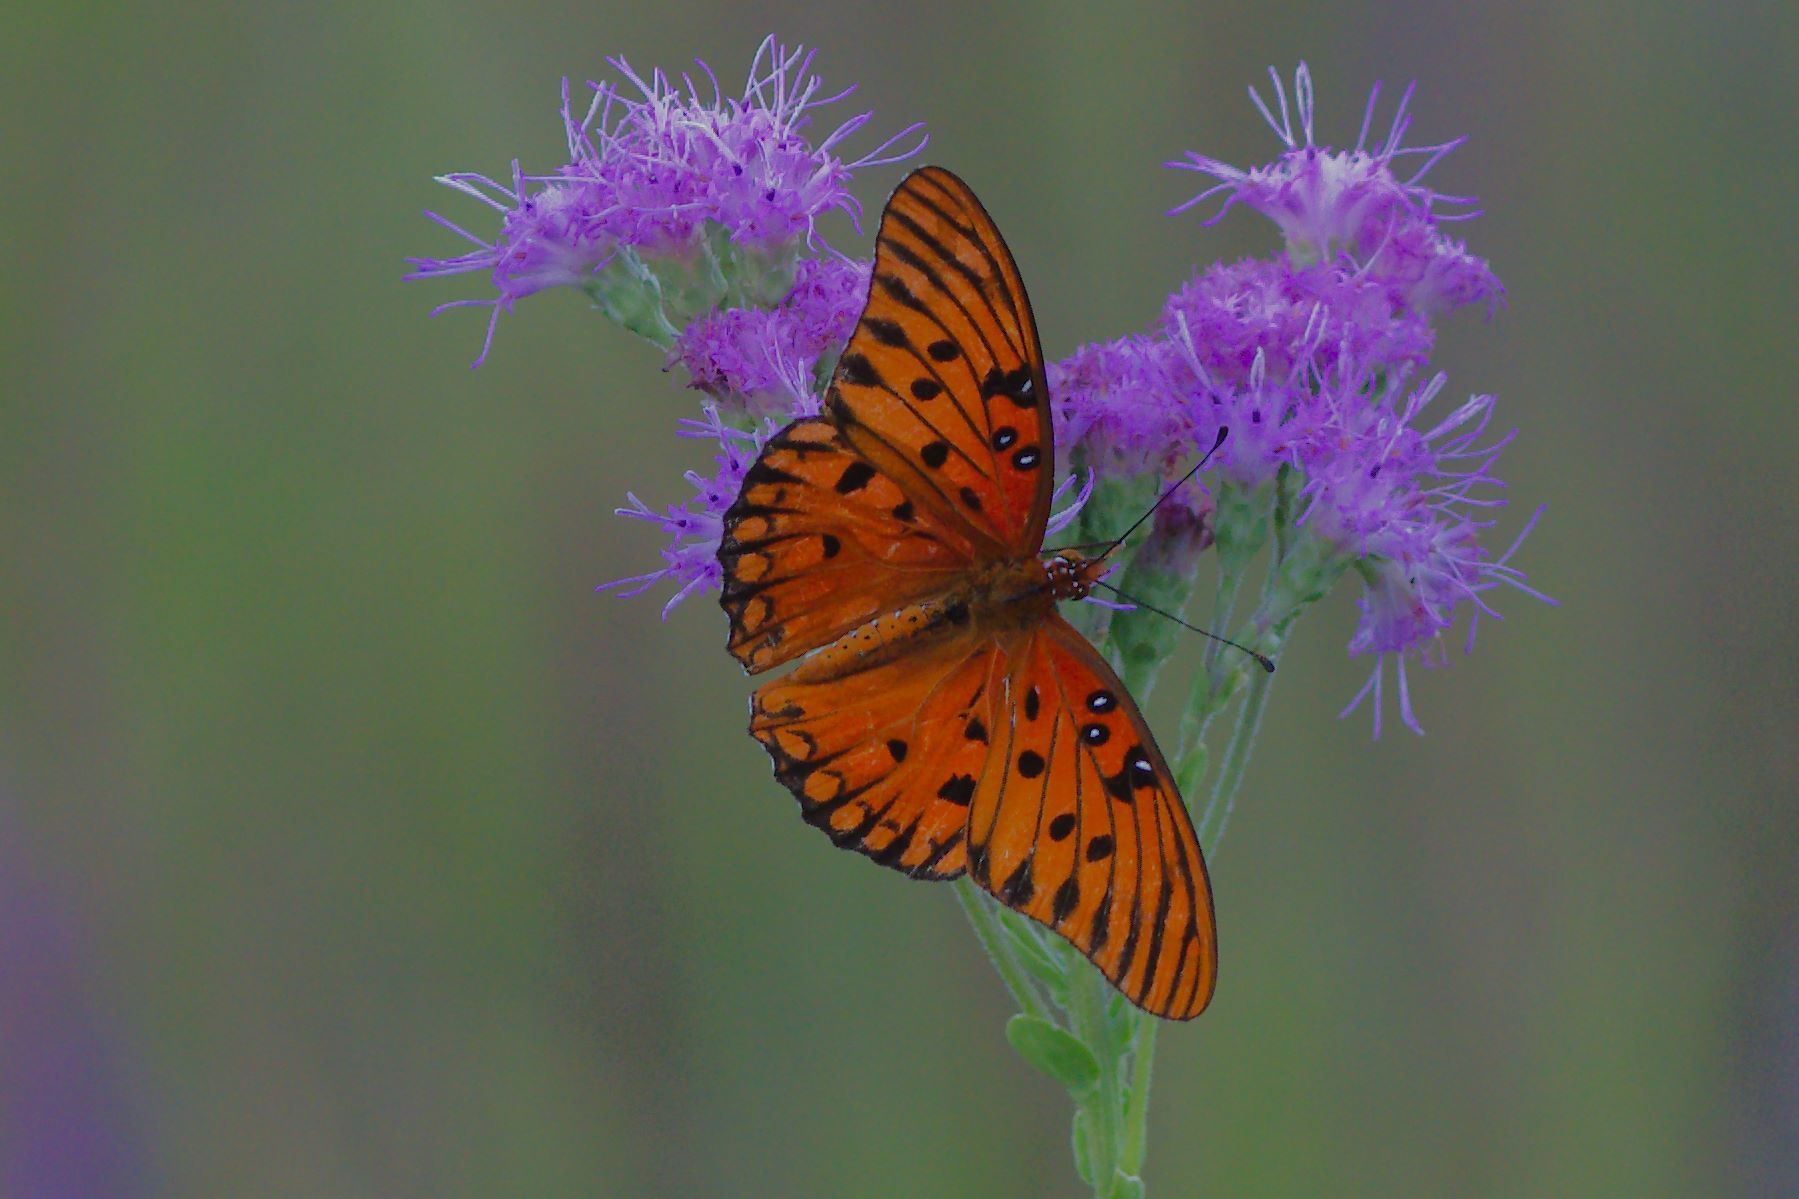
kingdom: Animalia
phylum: Arthropoda
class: Insecta
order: Lepidoptera
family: Nymphalidae
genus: Dione
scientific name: Dione vanillae
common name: Gulf fritillary
